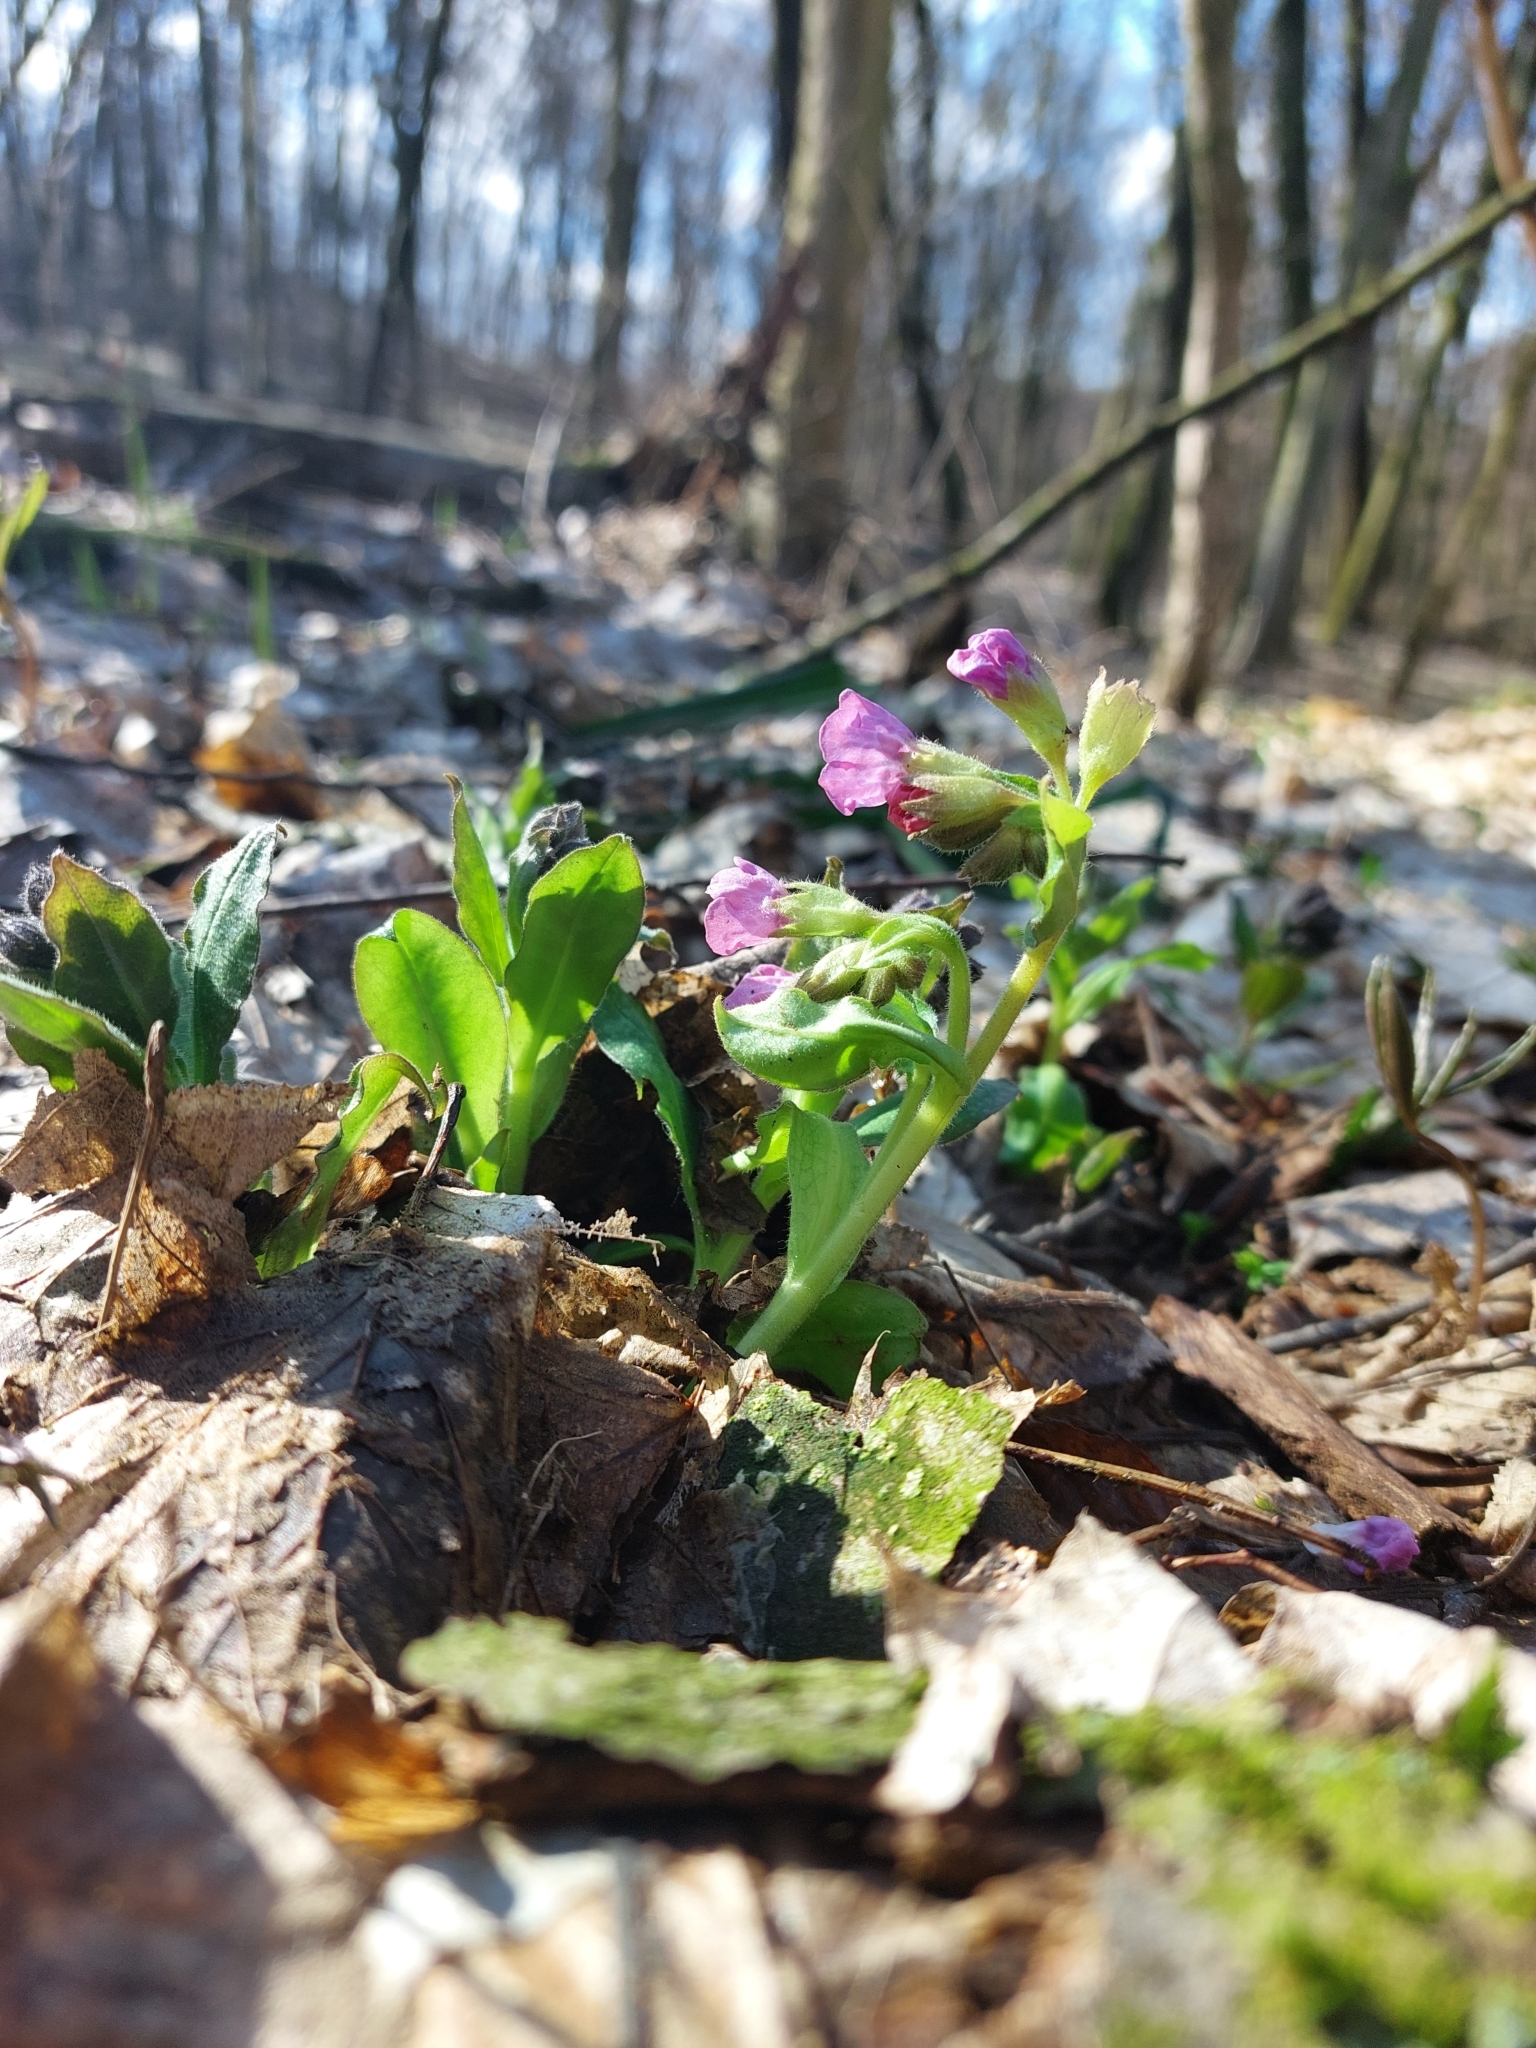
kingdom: Plantae
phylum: Tracheophyta
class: Magnoliopsida
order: Boraginales
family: Boraginaceae
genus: Pulmonaria
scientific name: Pulmonaria obscura
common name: Suffolk lungwort
